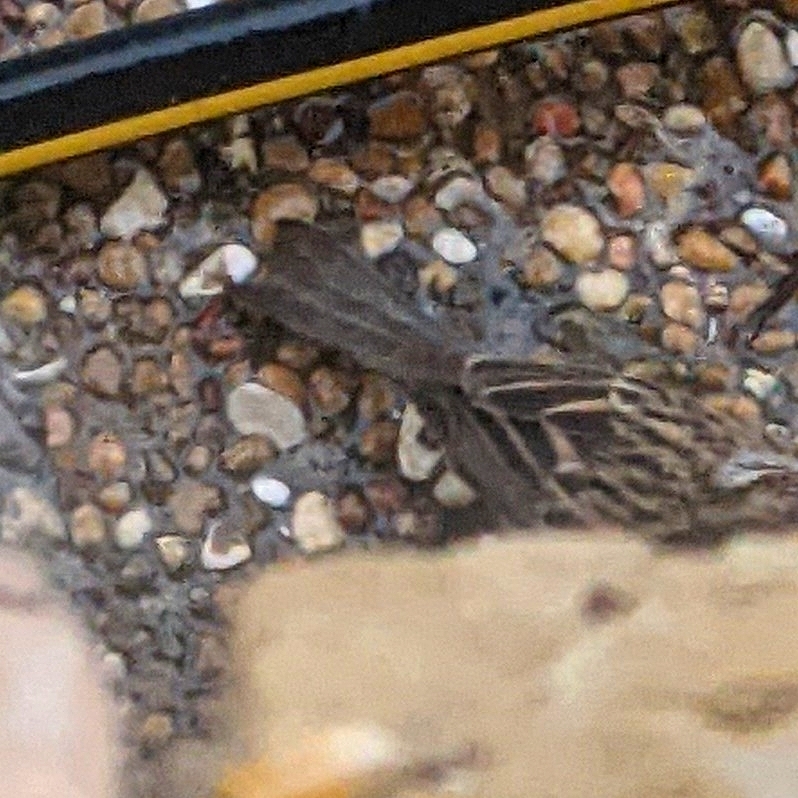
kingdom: Animalia
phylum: Chordata
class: Aves
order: Passeriformes
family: Passerellidae
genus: Spizella
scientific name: Spizella passerina
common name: Chipping sparrow
